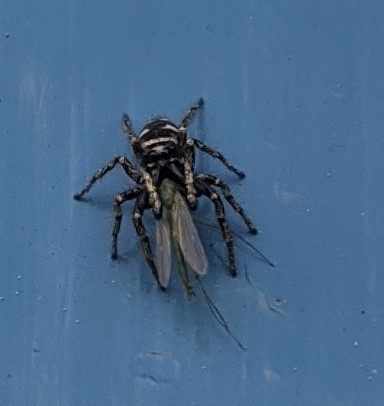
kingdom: Animalia
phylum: Arthropoda
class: Arachnida
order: Araneae
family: Salticidae
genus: Salticus
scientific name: Salticus scenicus
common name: Zebra jumper
